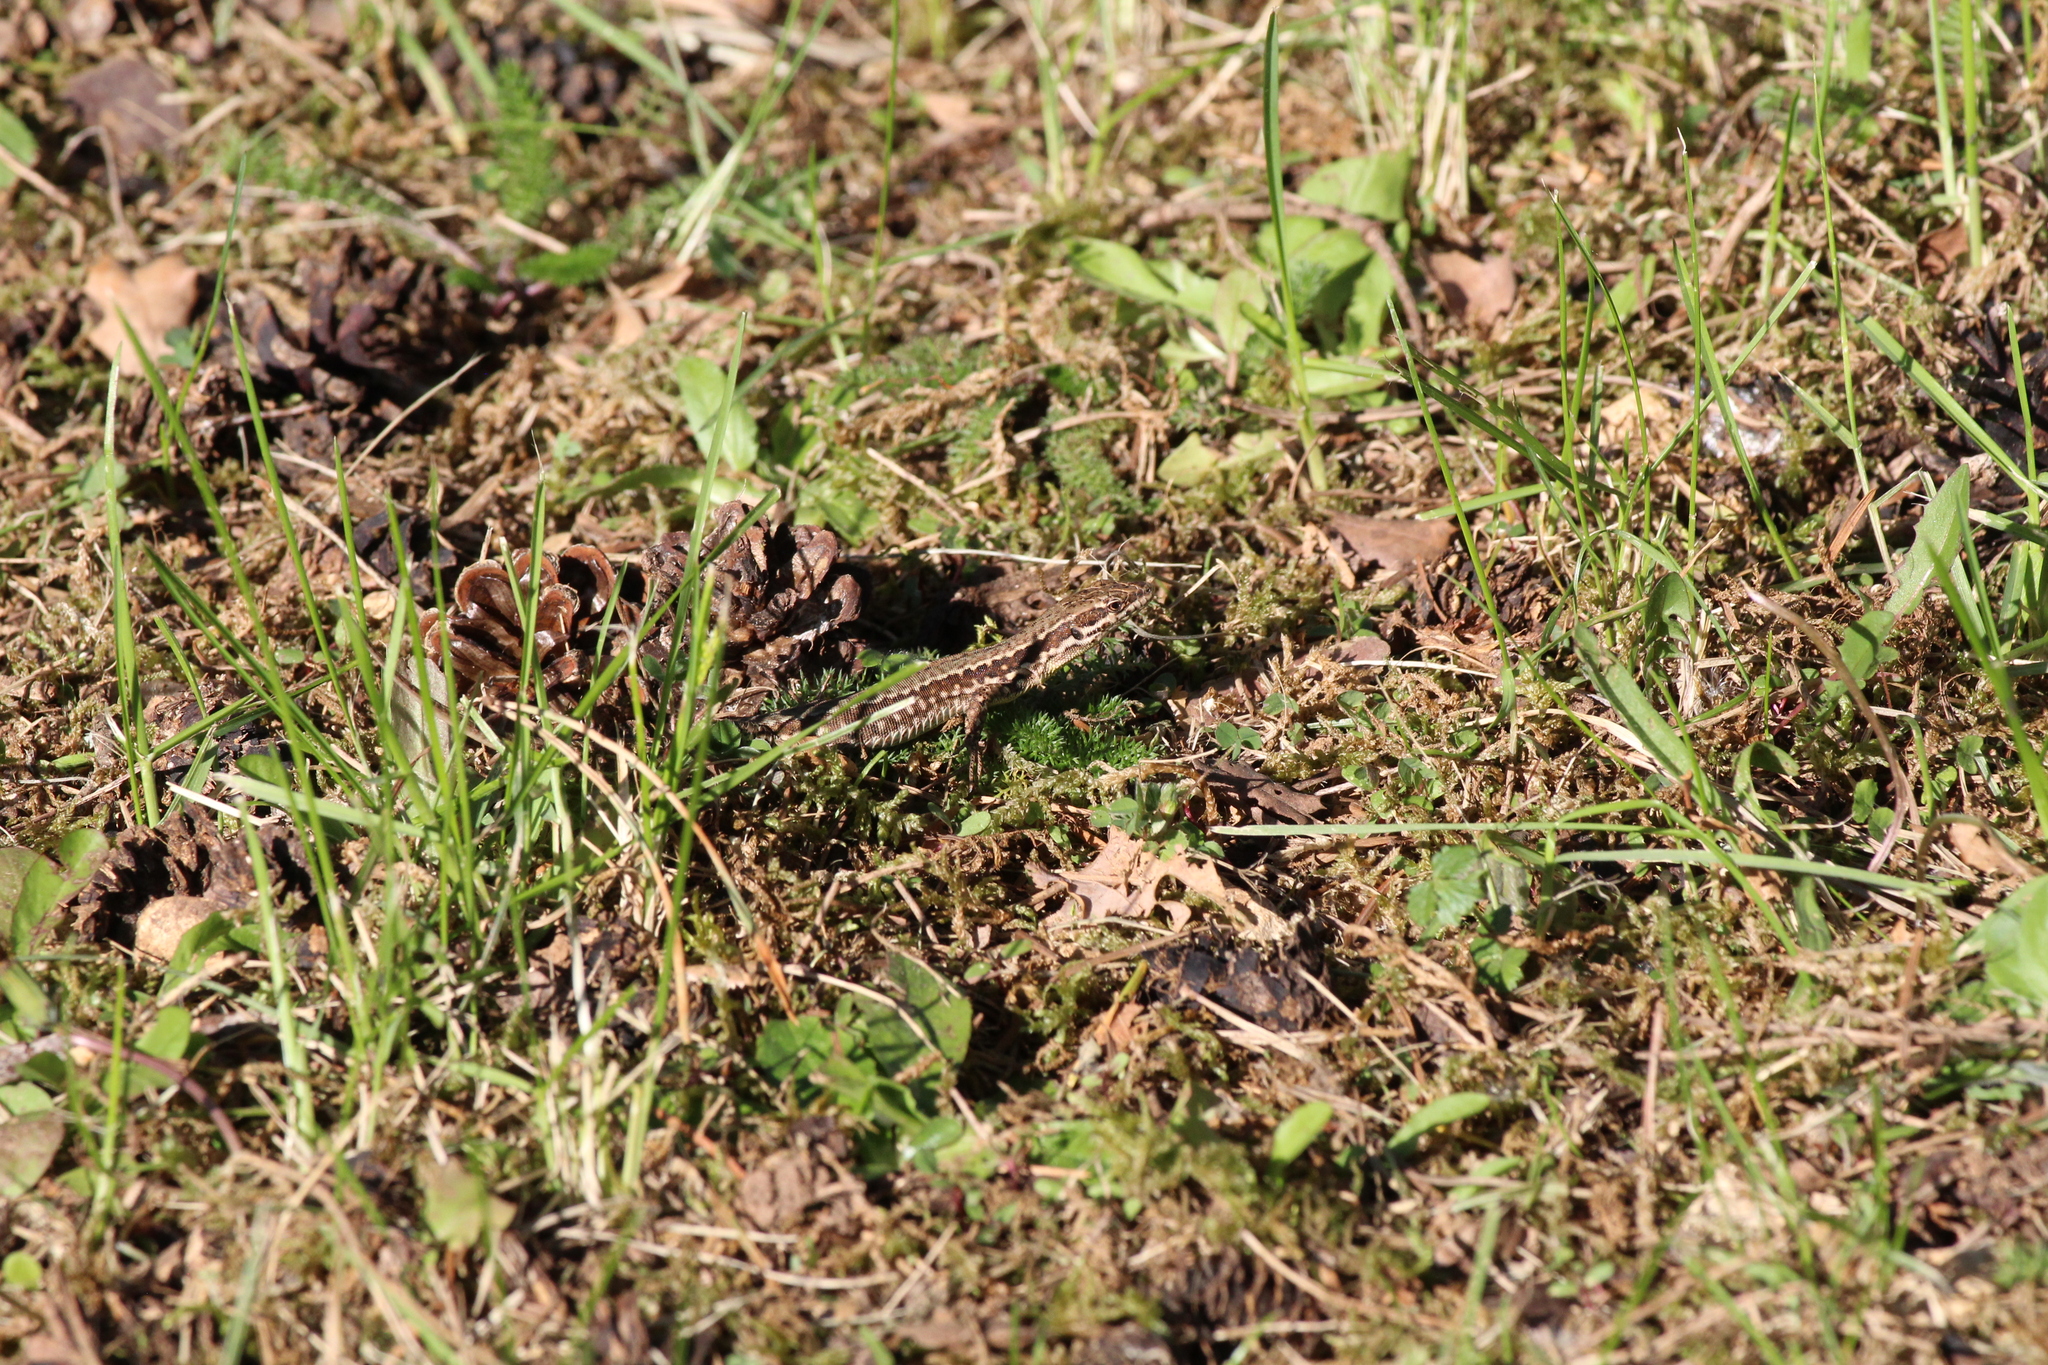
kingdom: Animalia
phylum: Chordata
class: Squamata
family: Lacertidae
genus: Podarcis
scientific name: Podarcis muralis
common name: Common wall lizard
